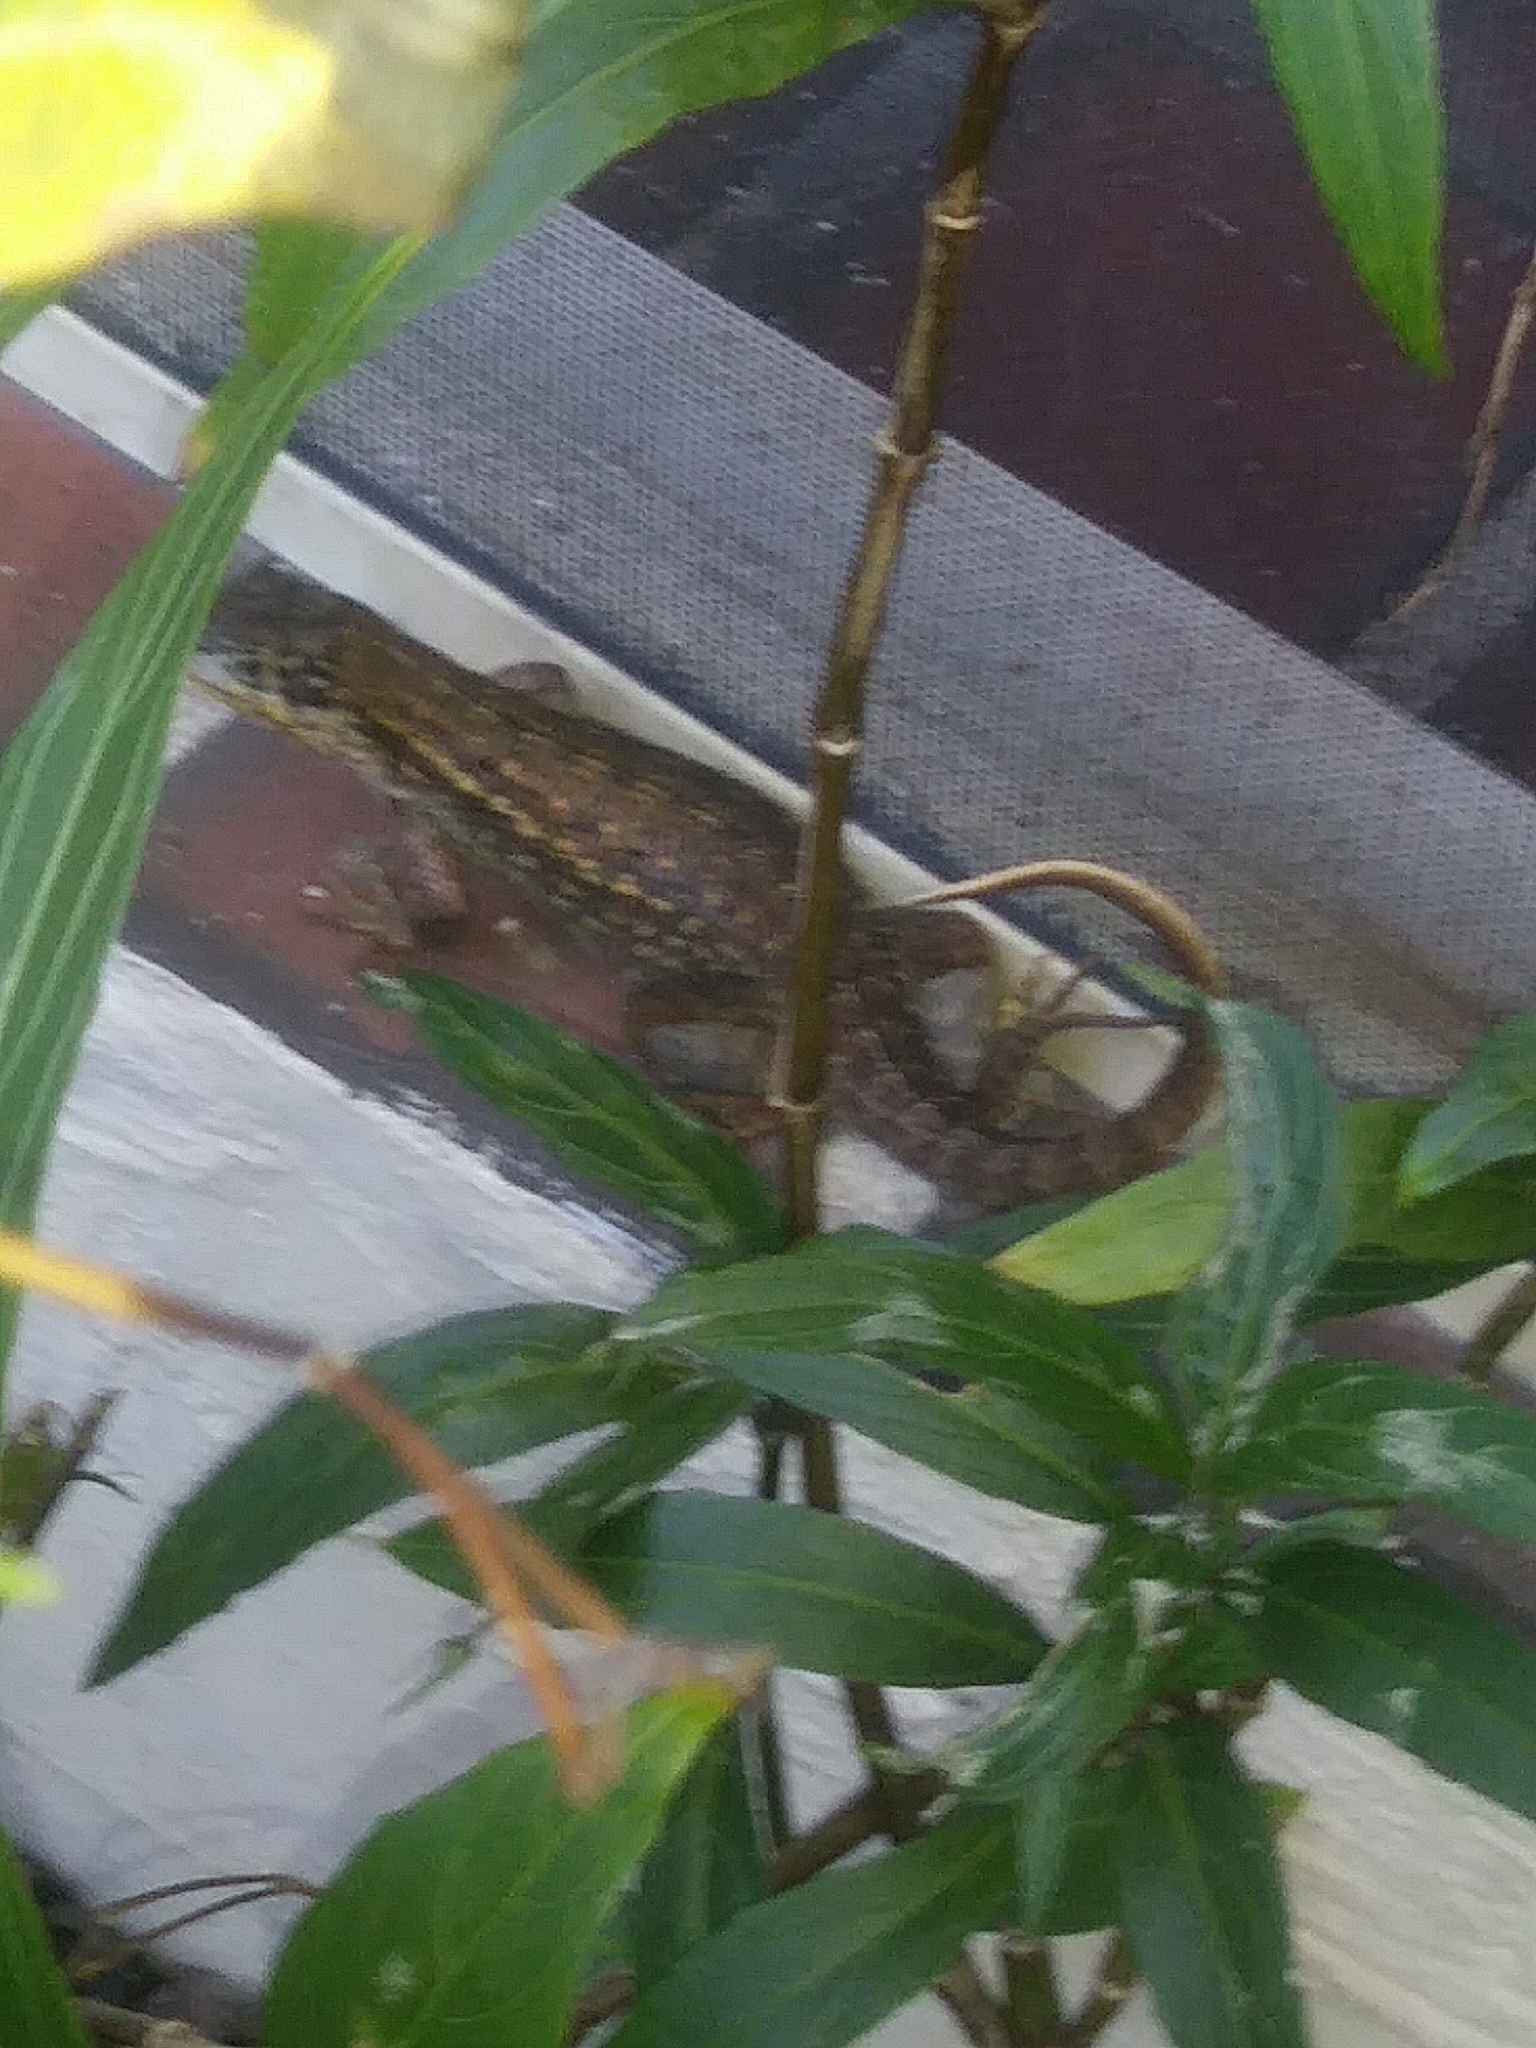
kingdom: Animalia
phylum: Chordata
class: Squamata
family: Leiocephalidae
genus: Leiocephalus
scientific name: Leiocephalus carinatus
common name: Northern curly-tailed lizard
